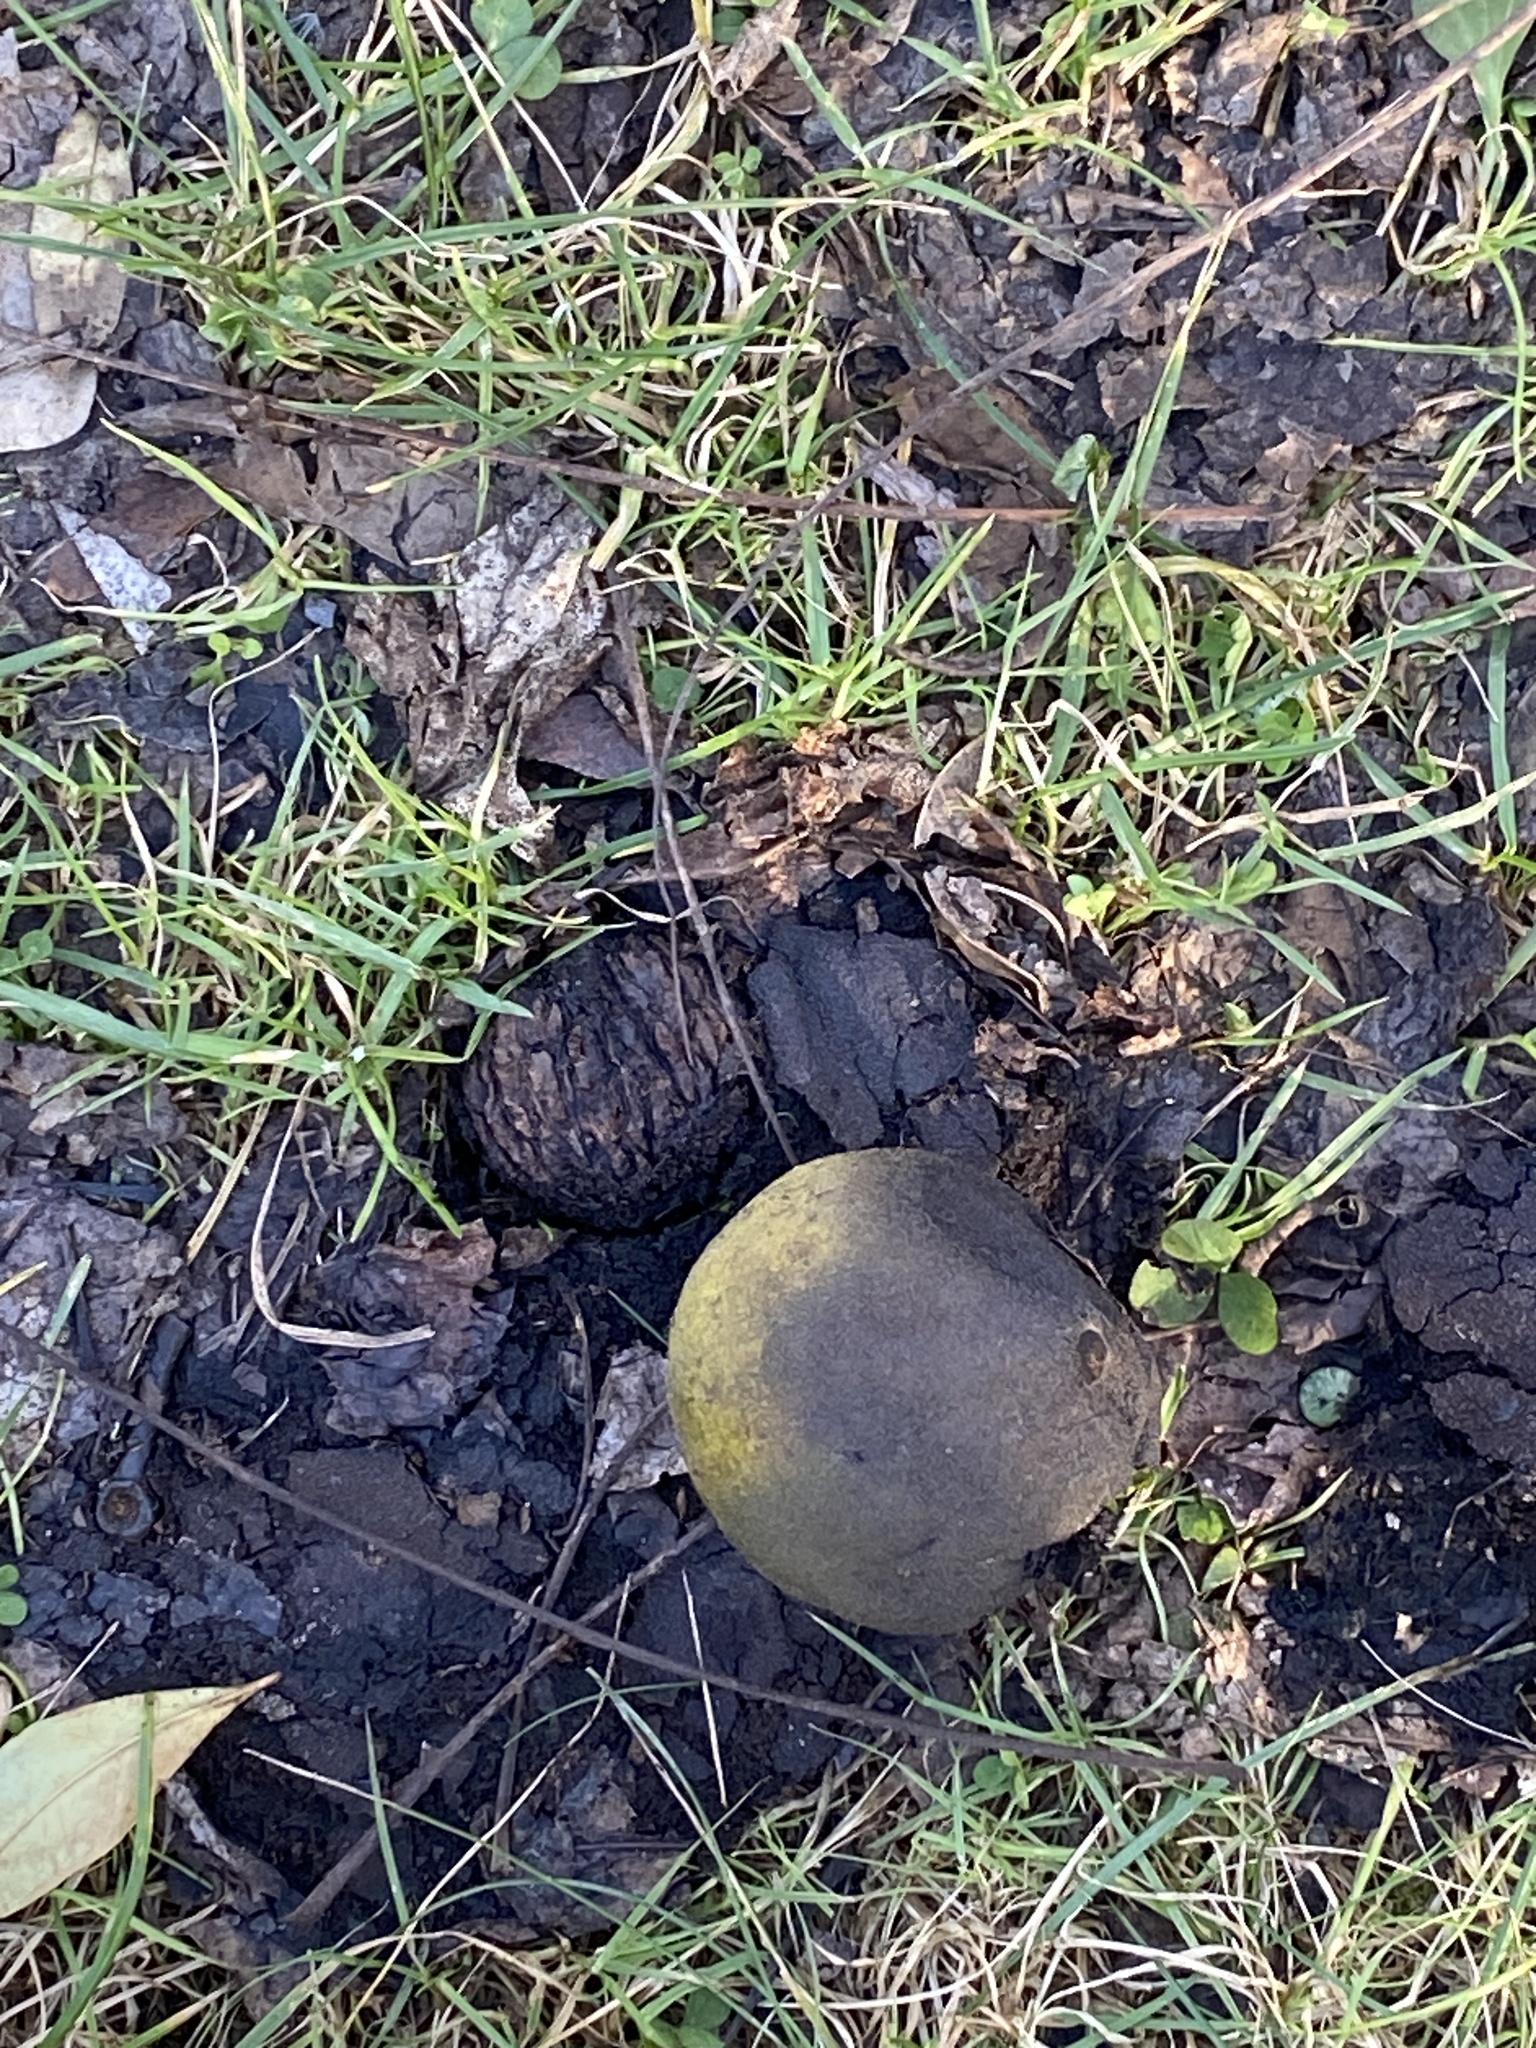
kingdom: Plantae
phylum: Tracheophyta
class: Magnoliopsida
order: Fagales
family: Juglandaceae
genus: Juglans
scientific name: Juglans nigra
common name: Black walnut
